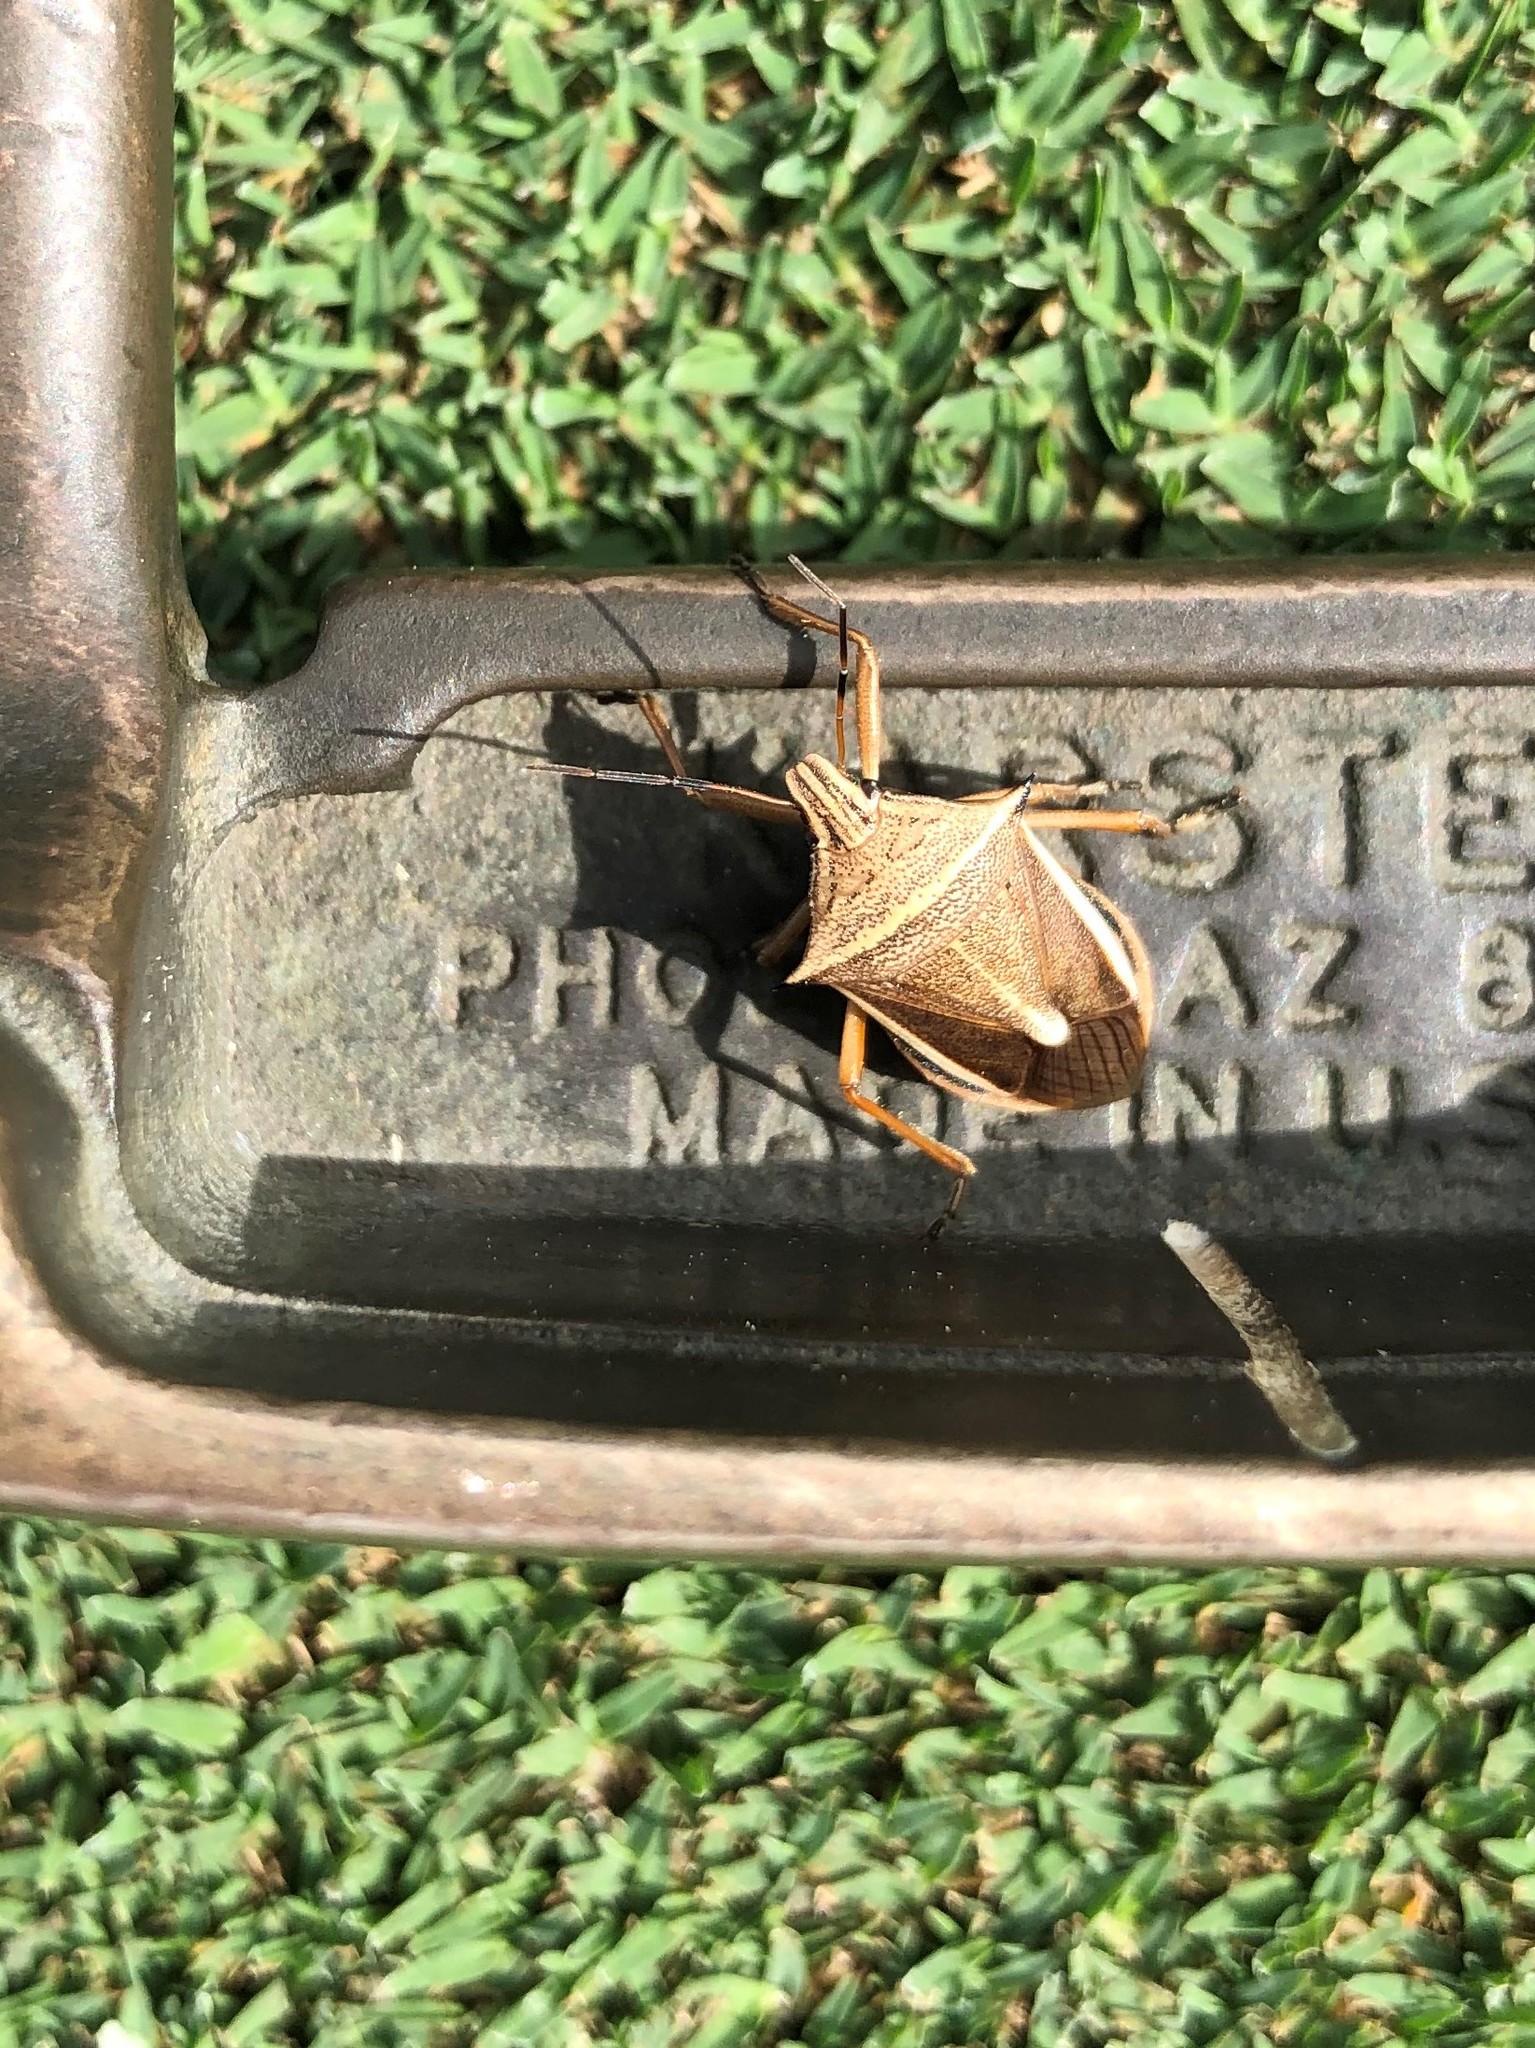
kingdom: Animalia
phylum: Arthropoda
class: Insecta
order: Hemiptera
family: Pentatomidae
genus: Andrallus
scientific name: Andrallus spinidens
